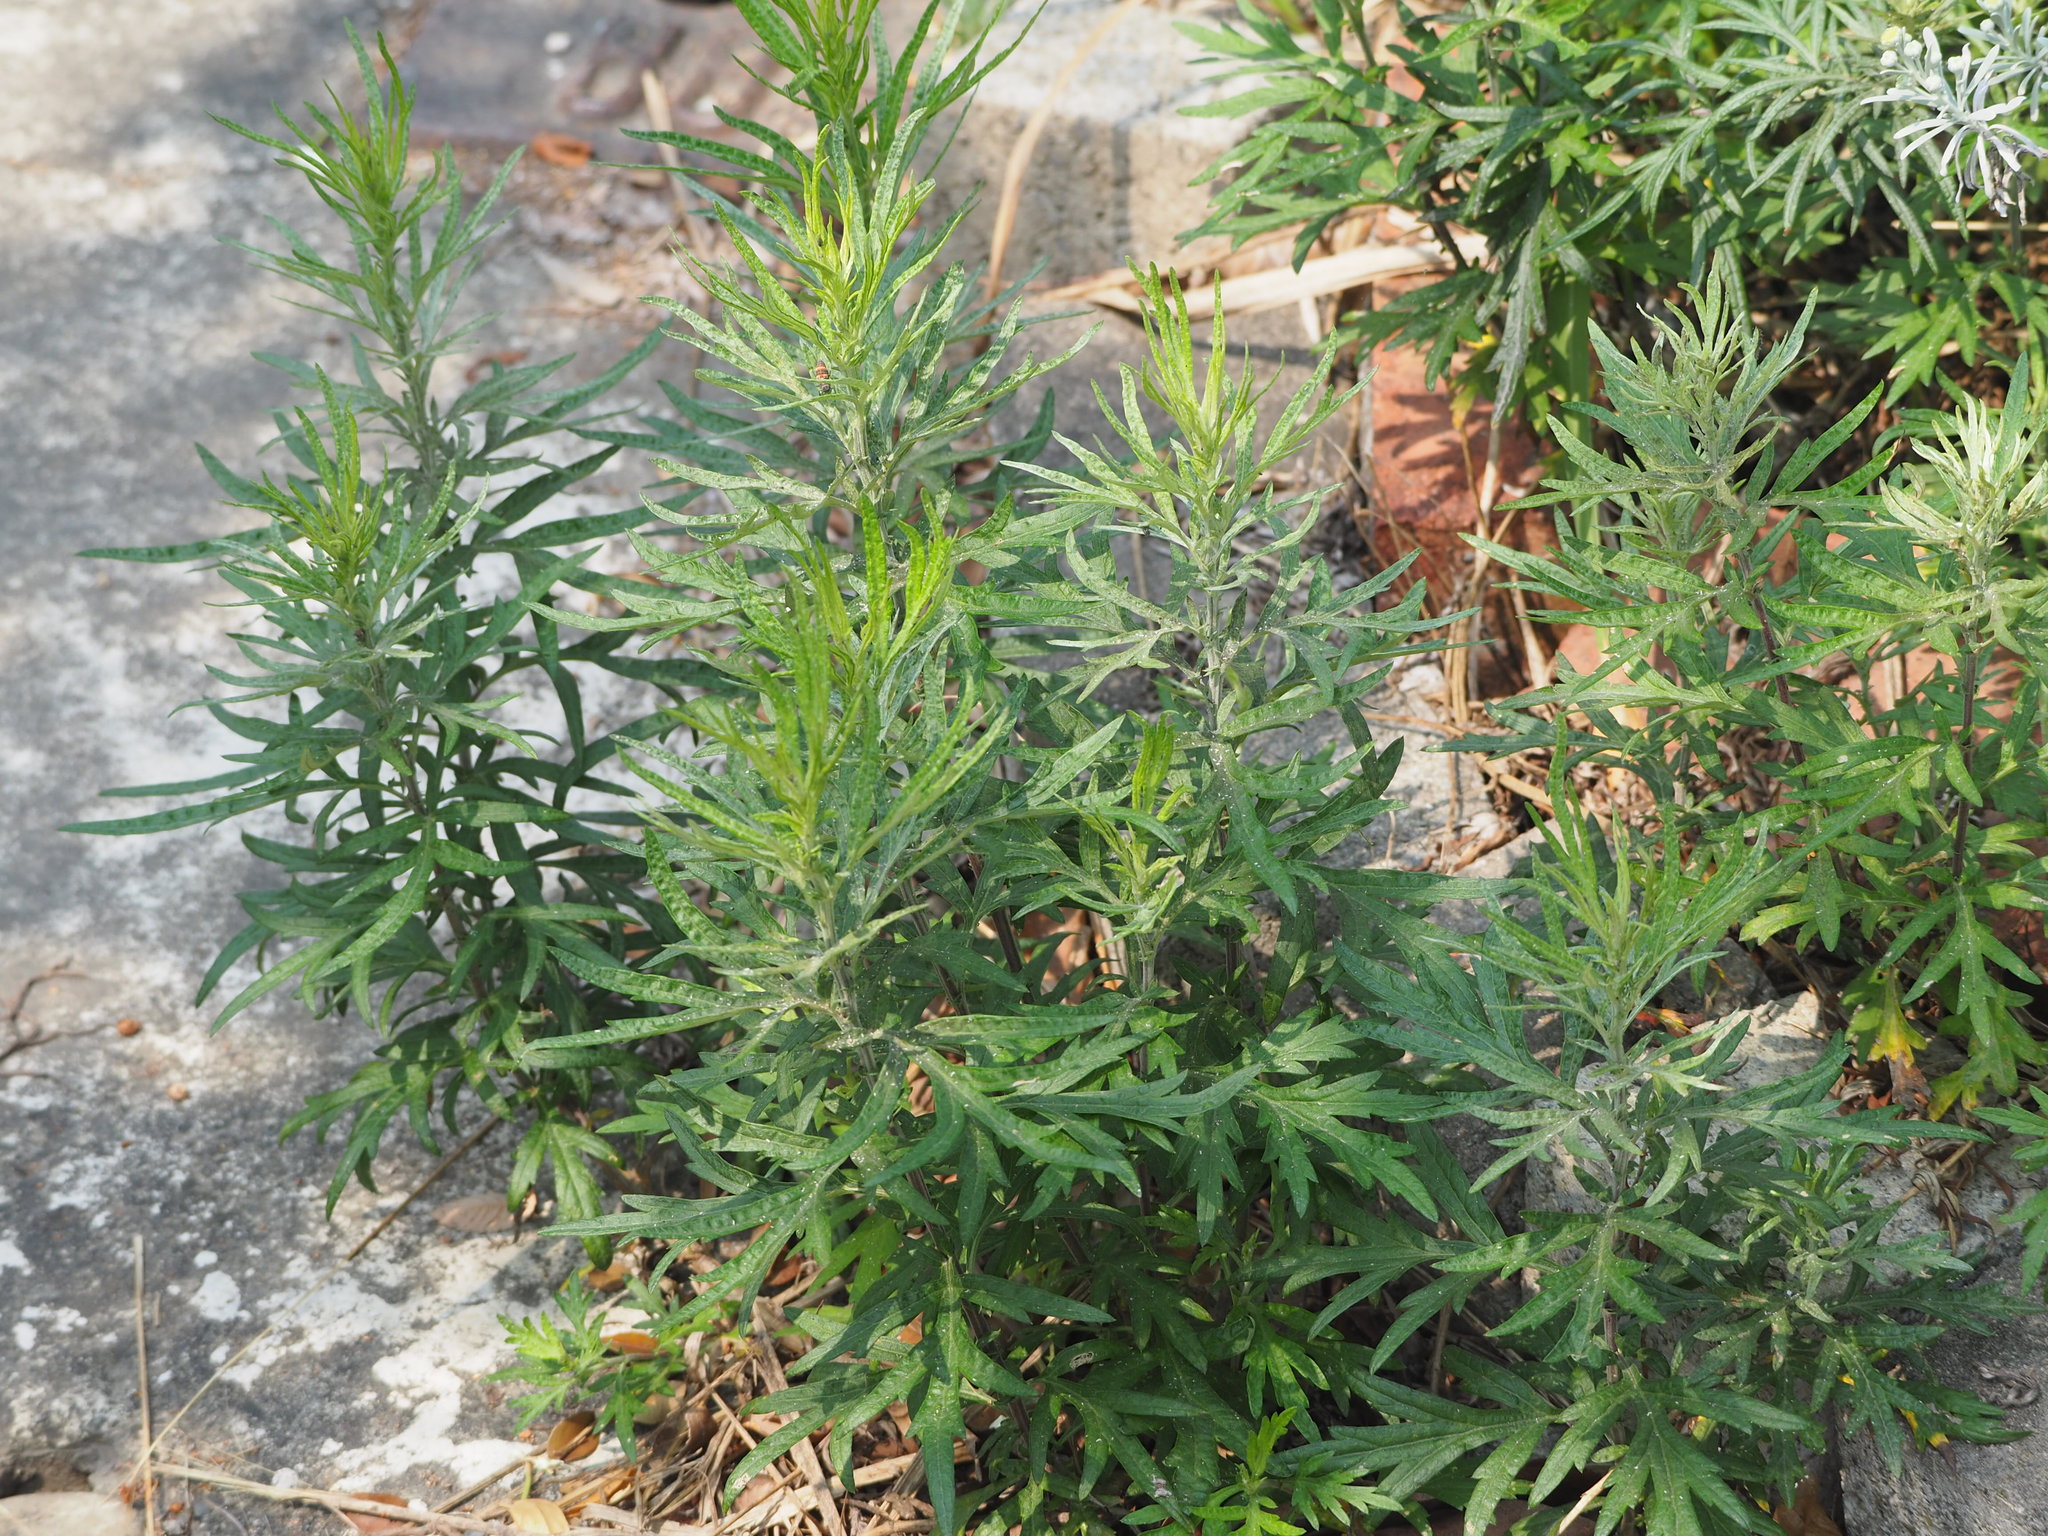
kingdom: Plantae
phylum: Tracheophyta
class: Magnoliopsida
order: Asterales
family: Asteraceae
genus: Artemisia
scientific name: Artemisia indica
